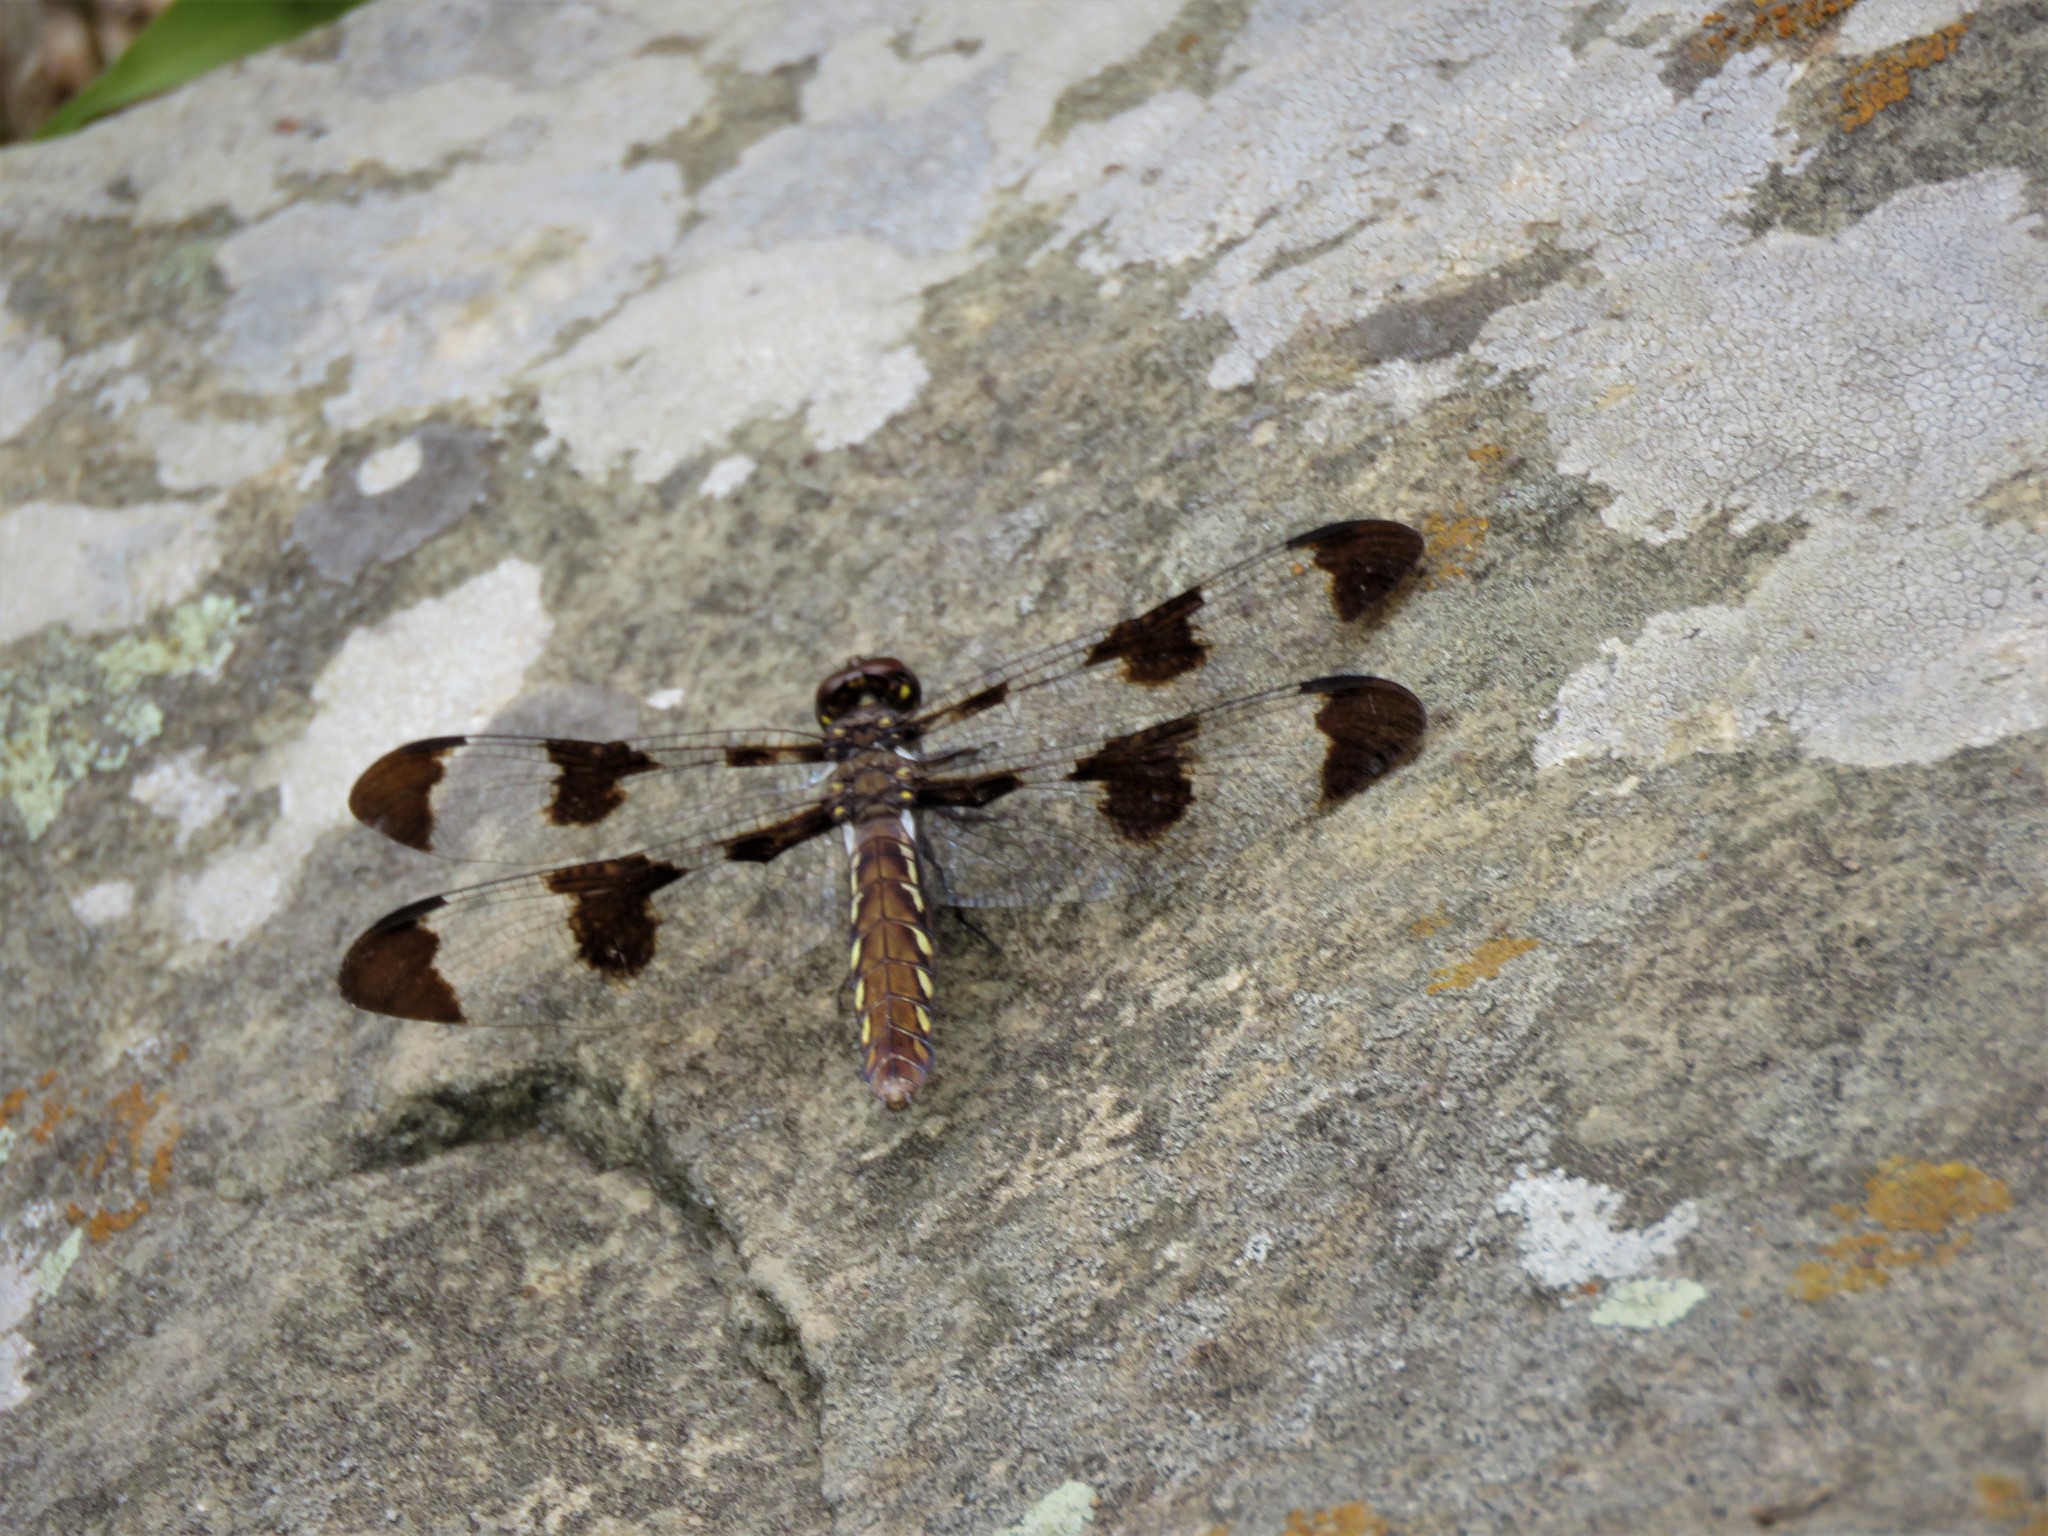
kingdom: Animalia
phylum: Arthropoda
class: Insecta
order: Odonata
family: Libellulidae
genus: Plathemis
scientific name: Plathemis lydia
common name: Common whitetail
